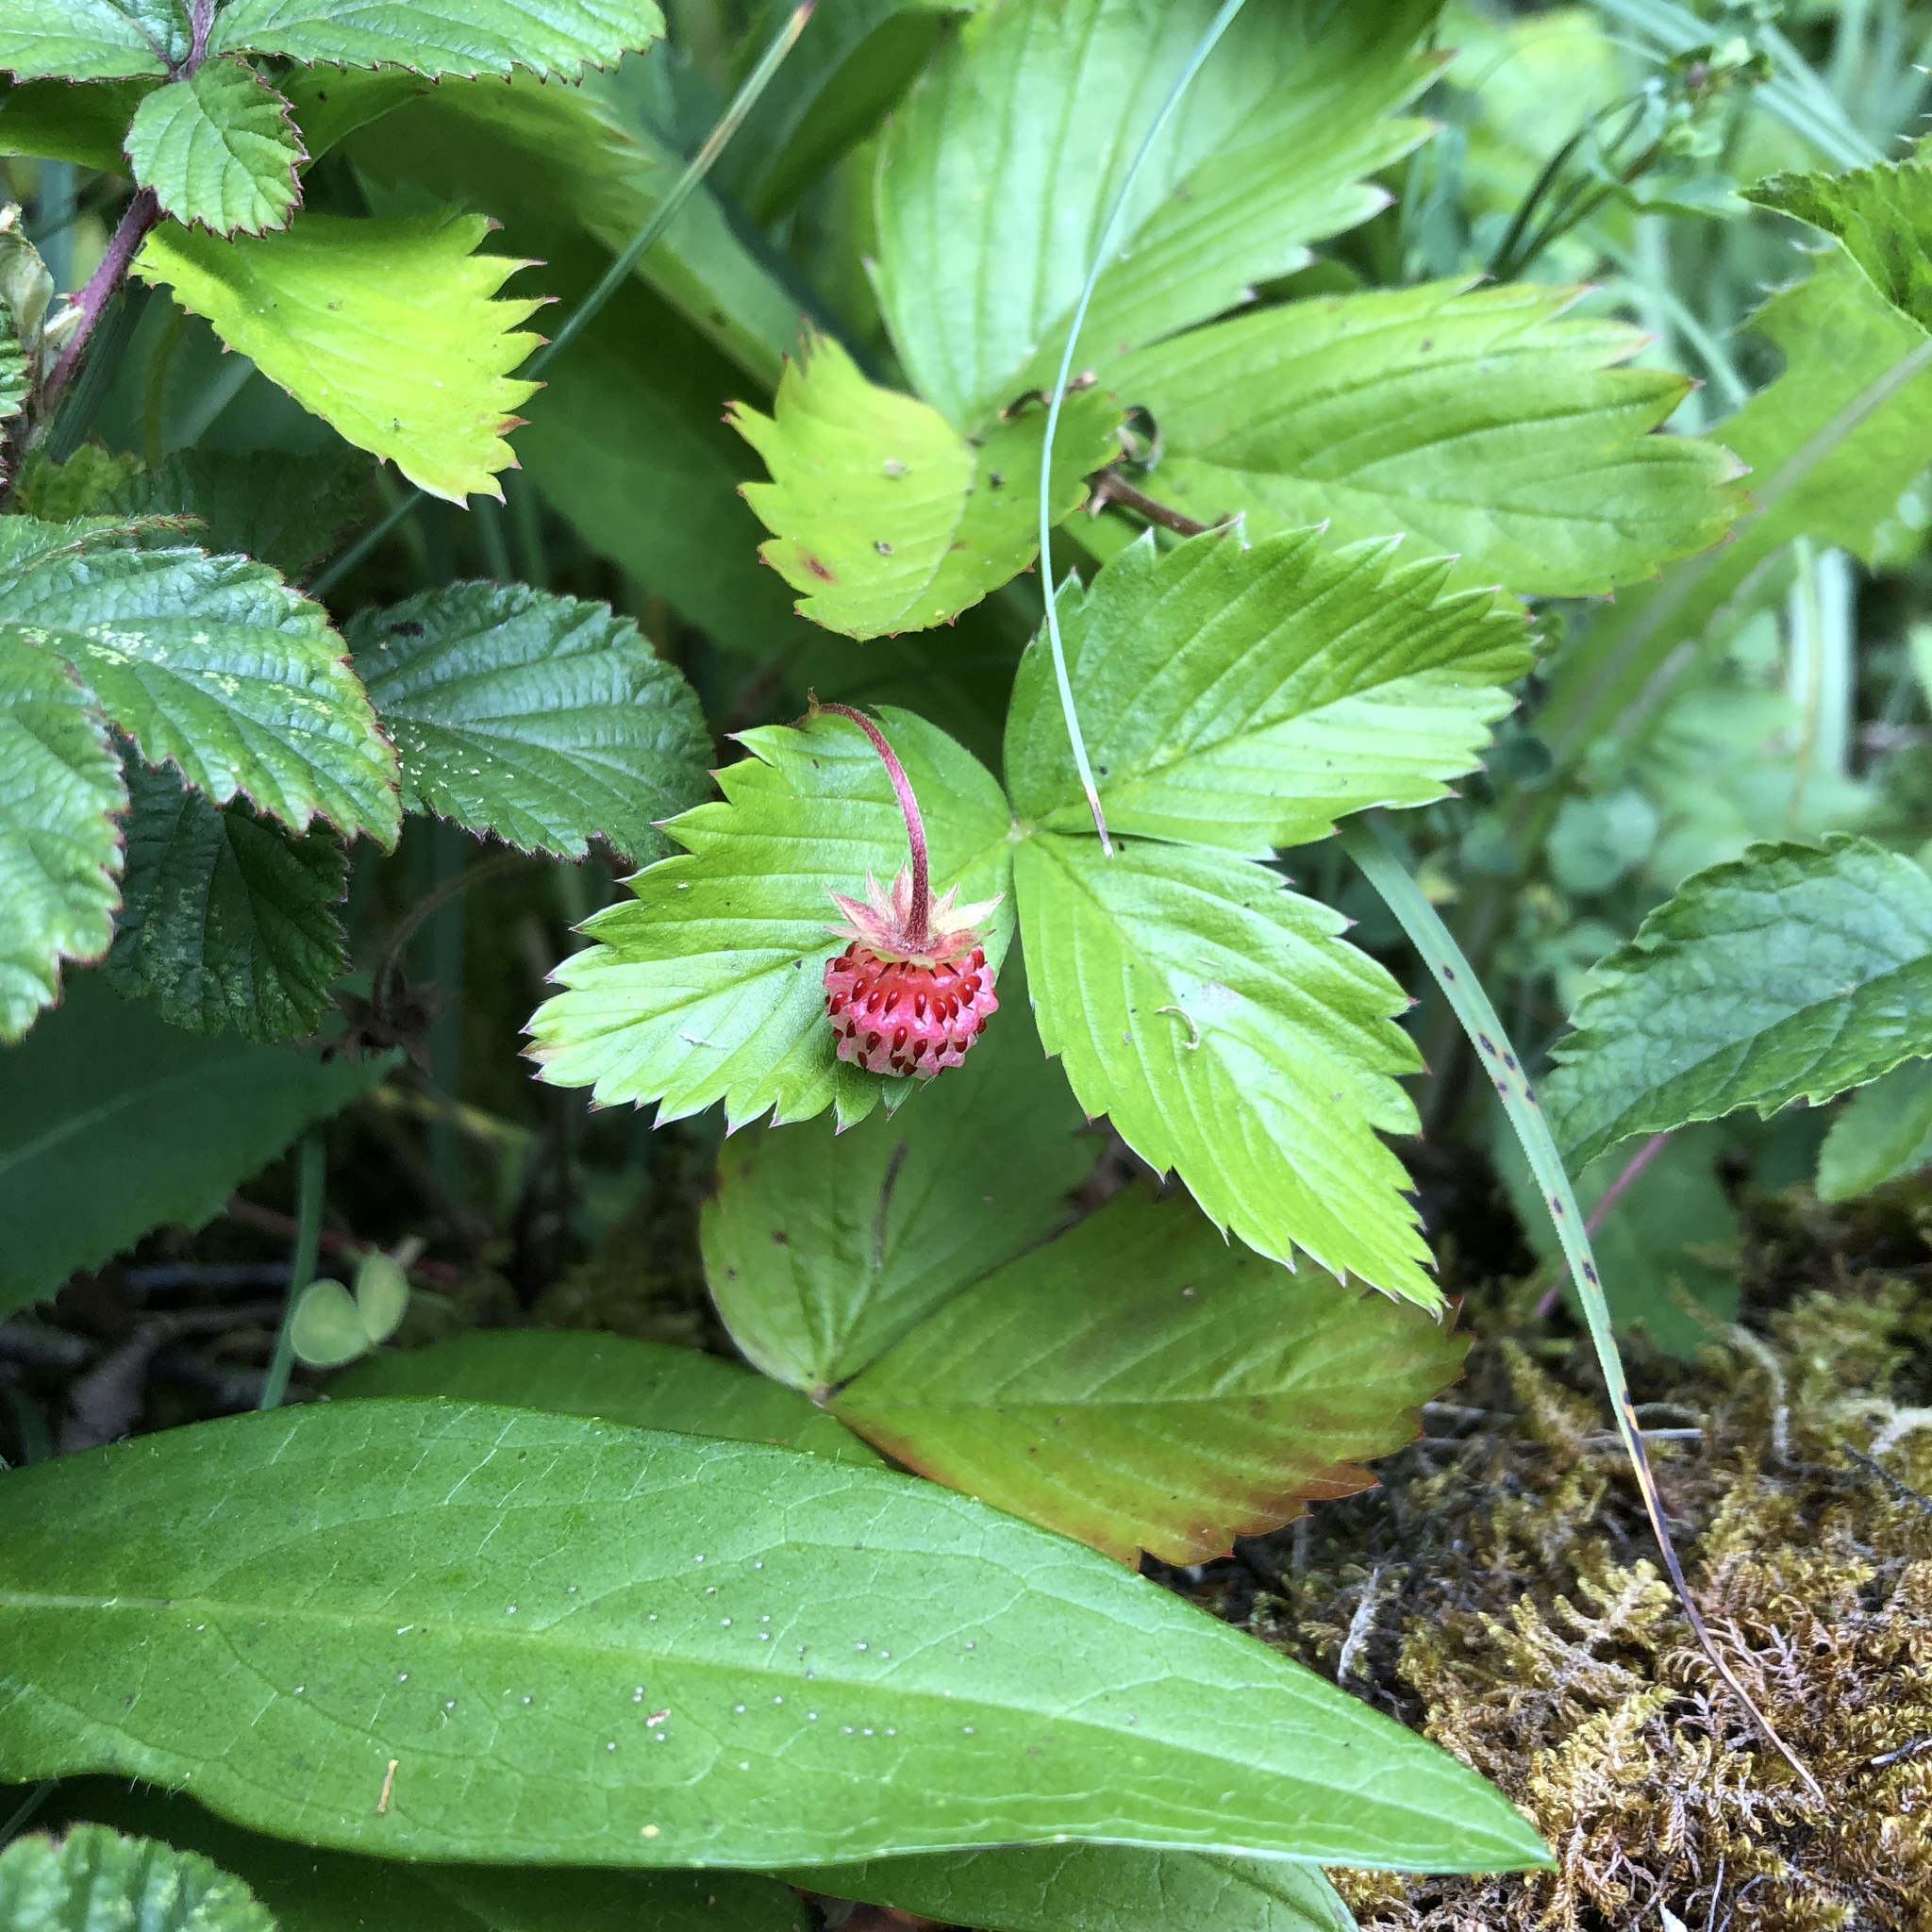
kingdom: Plantae
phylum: Tracheophyta
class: Magnoliopsida
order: Rosales
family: Rosaceae
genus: Fragaria
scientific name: Fragaria vesca
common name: Wild strawberry
